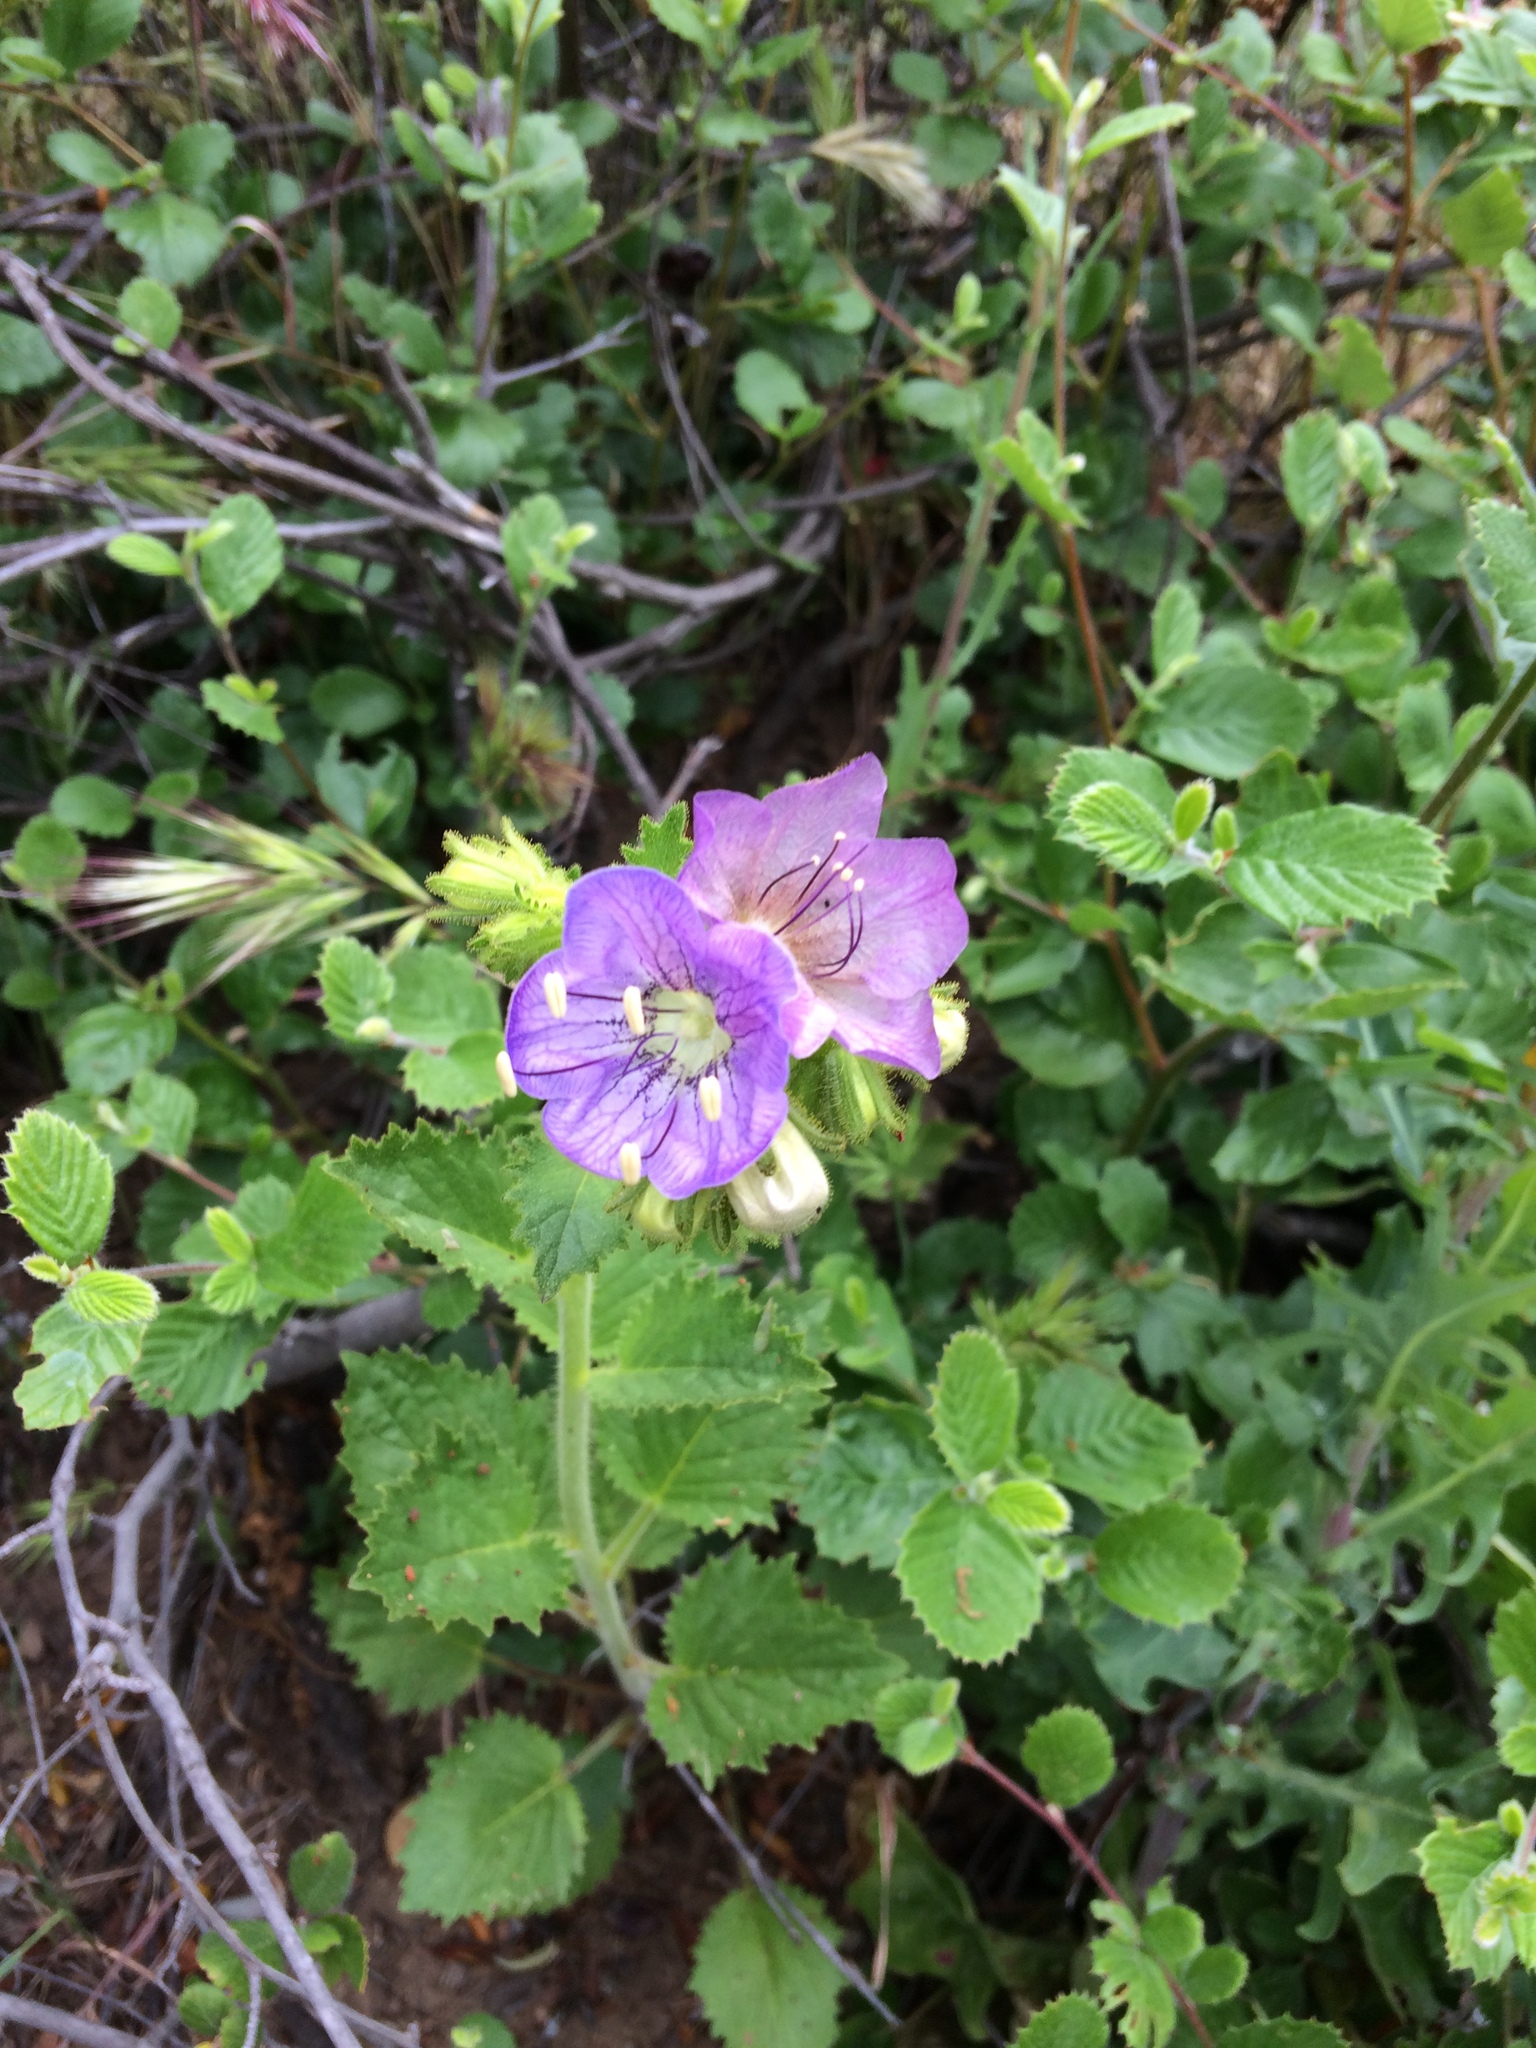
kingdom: Plantae
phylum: Tracheophyta
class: Magnoliopsida
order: Boraginales
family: Hydrophyllaceae
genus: Phacelia
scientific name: Phacelia grandiflora
